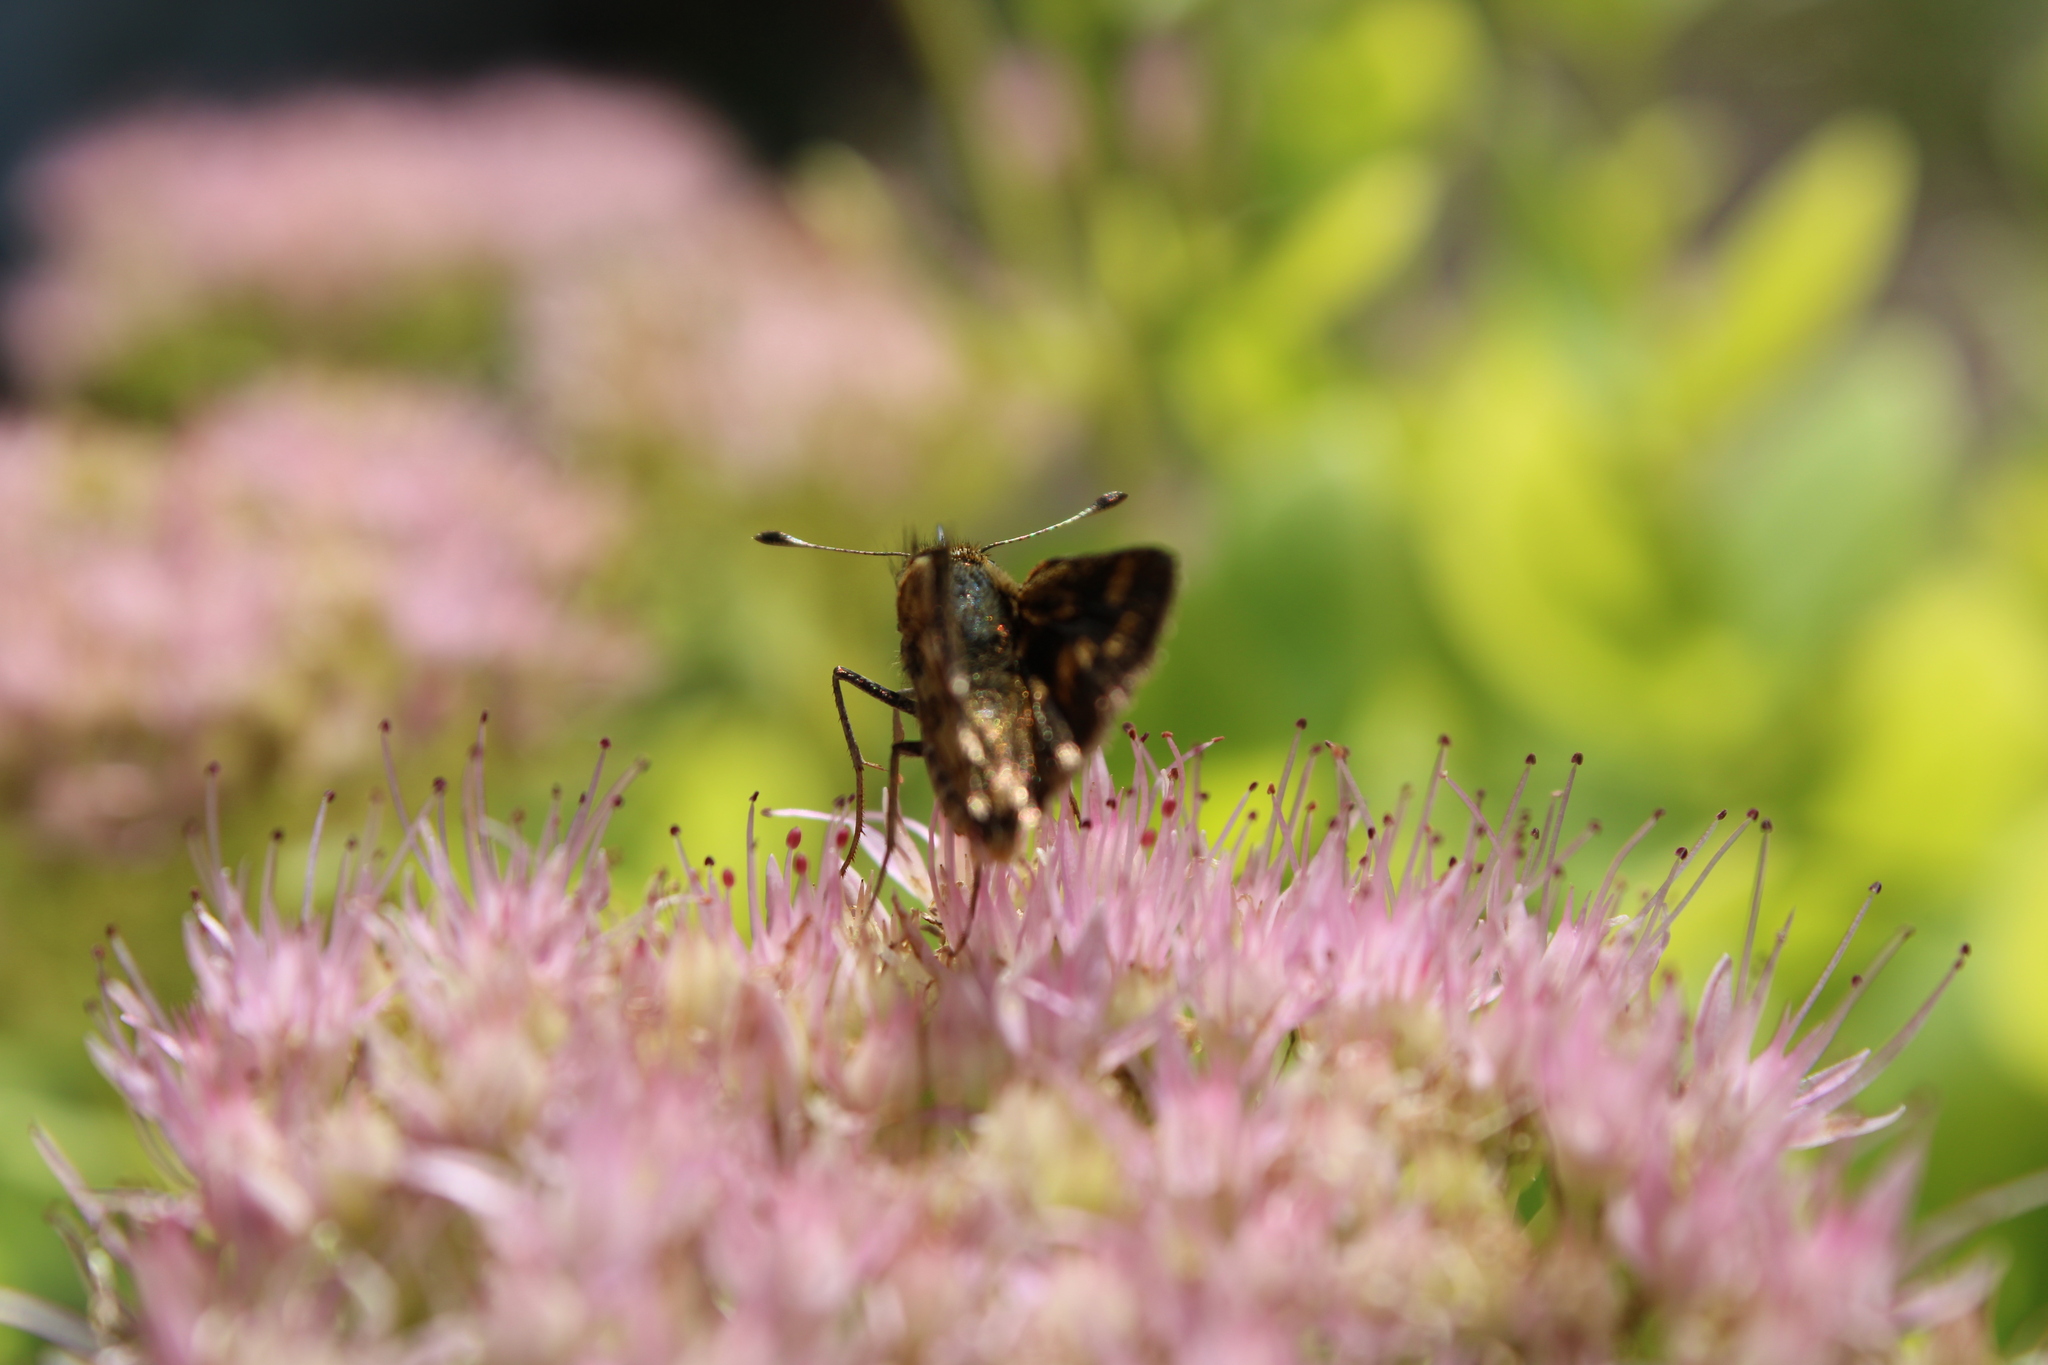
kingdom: Animalia
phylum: Arthropoda
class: Insecta
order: Lepidoptera
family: Hesperiidae
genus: Polites
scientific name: Polites coras
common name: Peck's skipper
